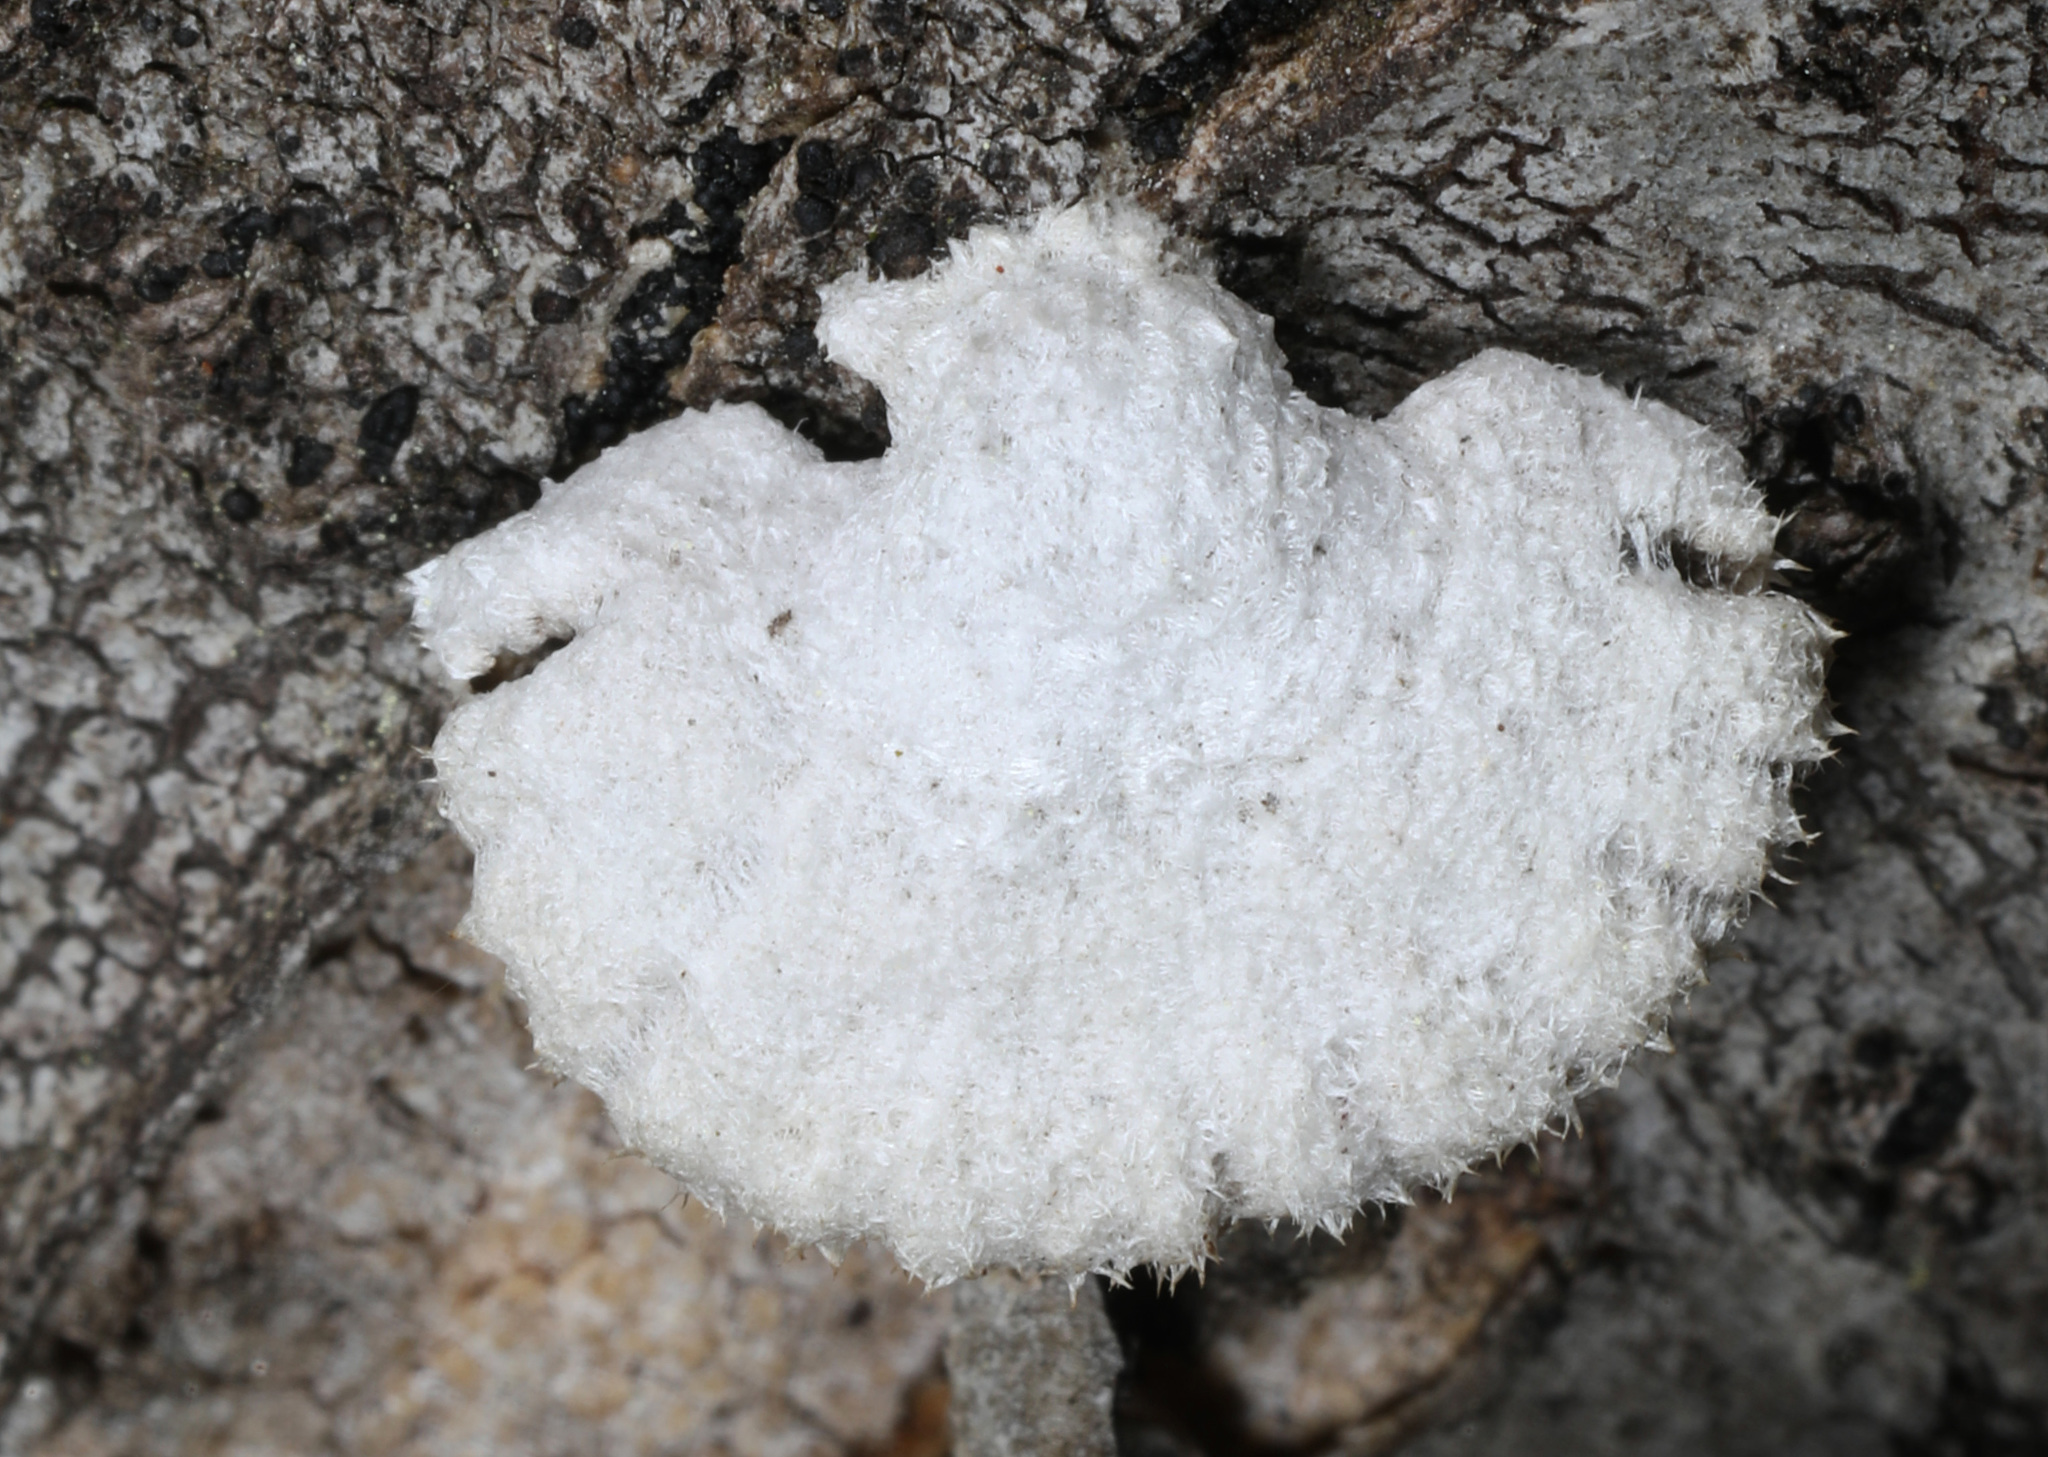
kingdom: Fungi
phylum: Basidiomycota
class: Agaricomycetes
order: Agaricales
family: Schizophyllaceae
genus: Schizophyllum
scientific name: Schizophyllum commune
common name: Common porecrust
